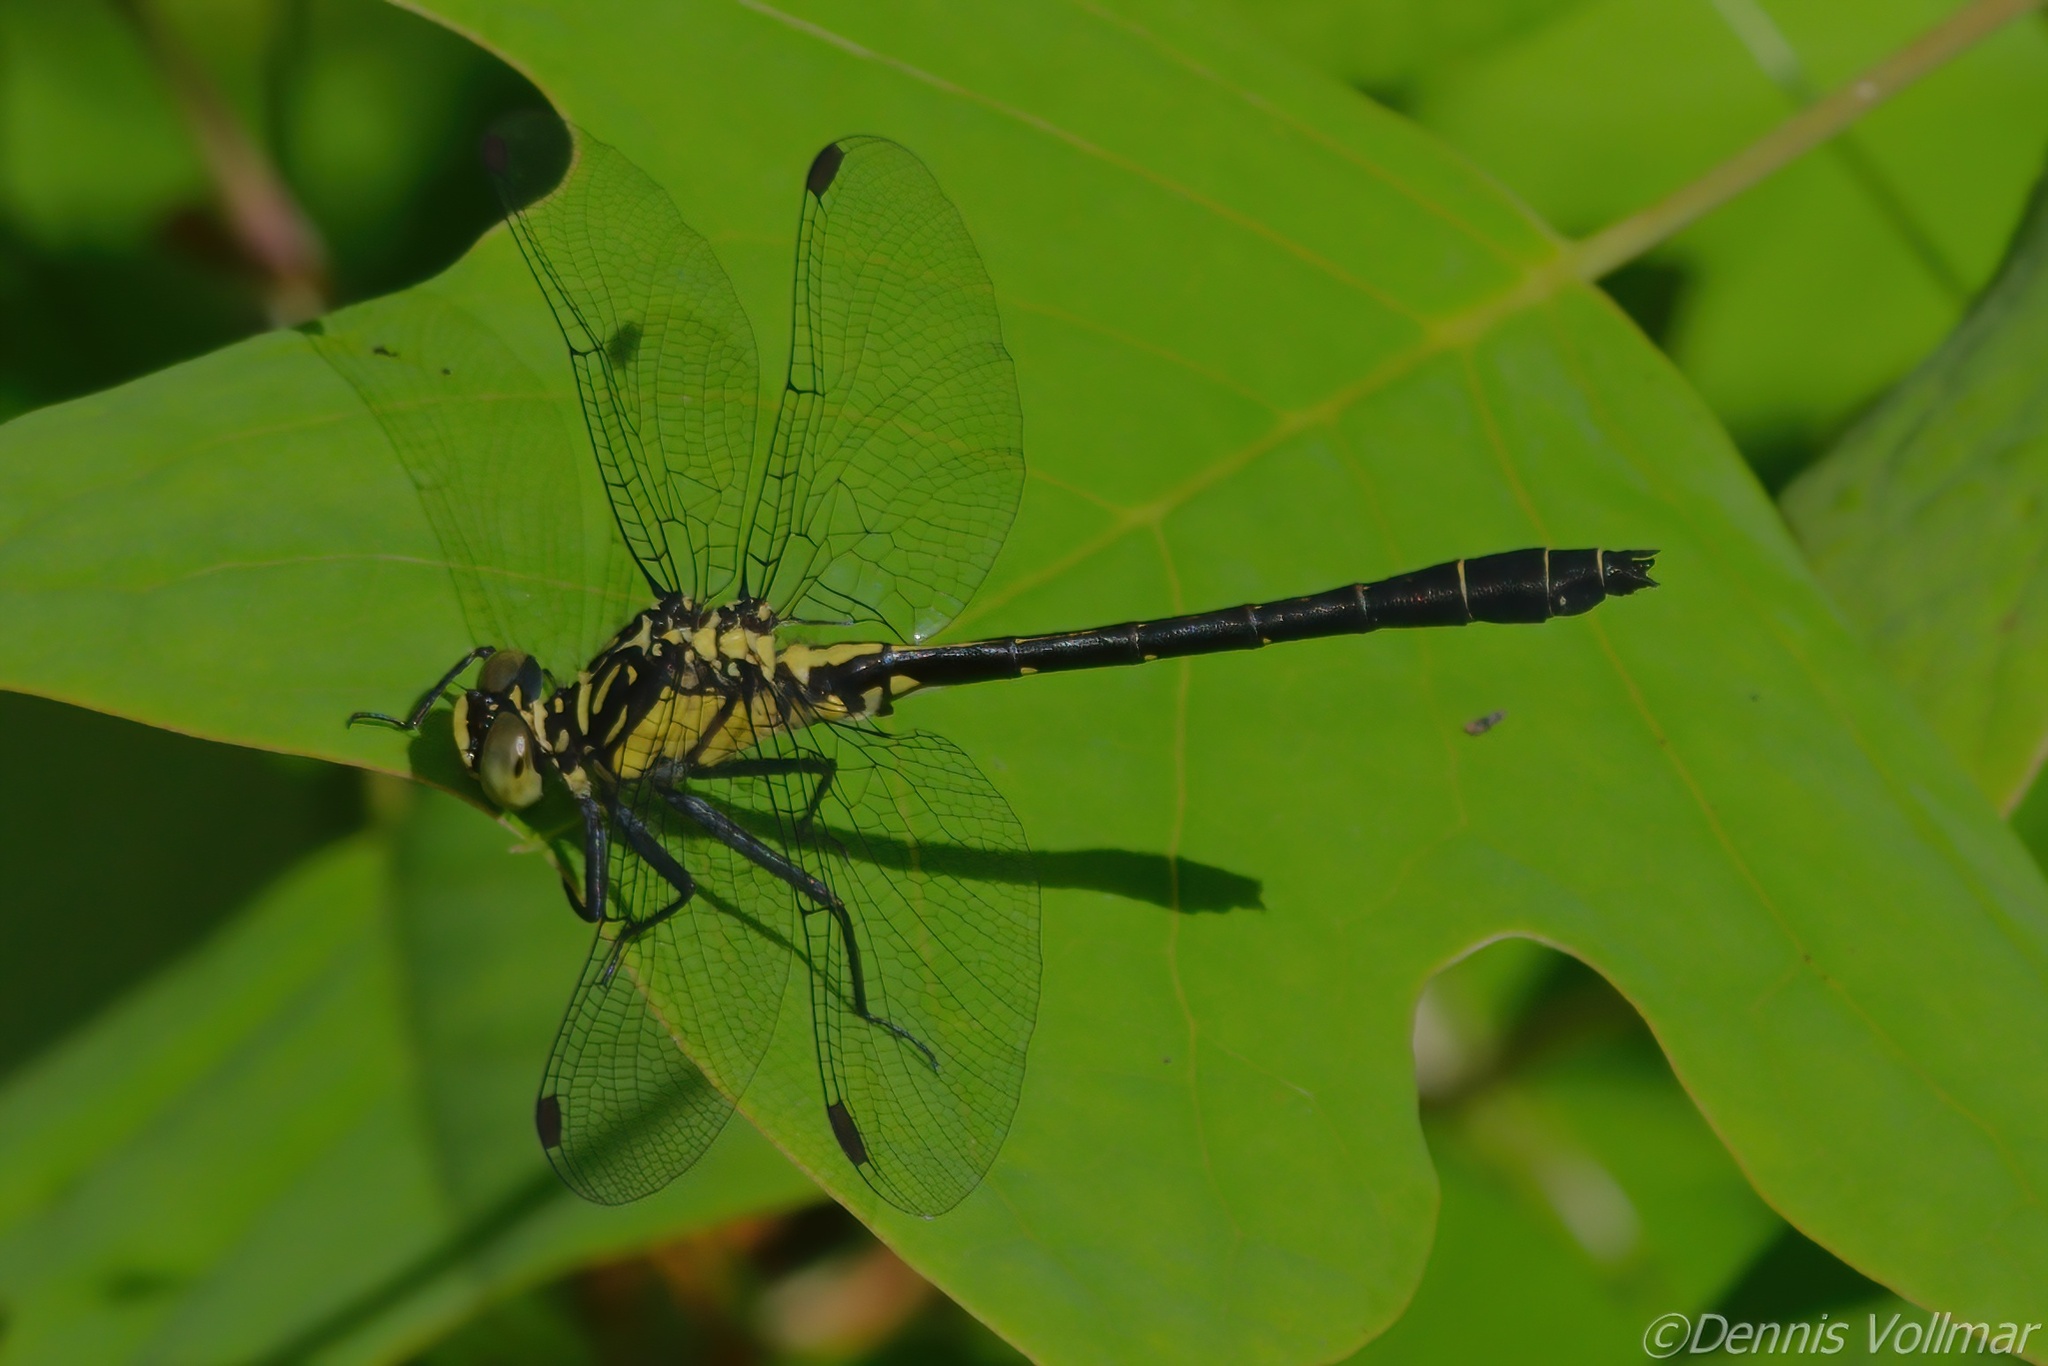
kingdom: Animalia
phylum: Arthropoda
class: Insecta
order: Odonata
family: Gomphidae
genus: Lanthus
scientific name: Lanthus vernalis
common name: Southern pygmy clubtail
